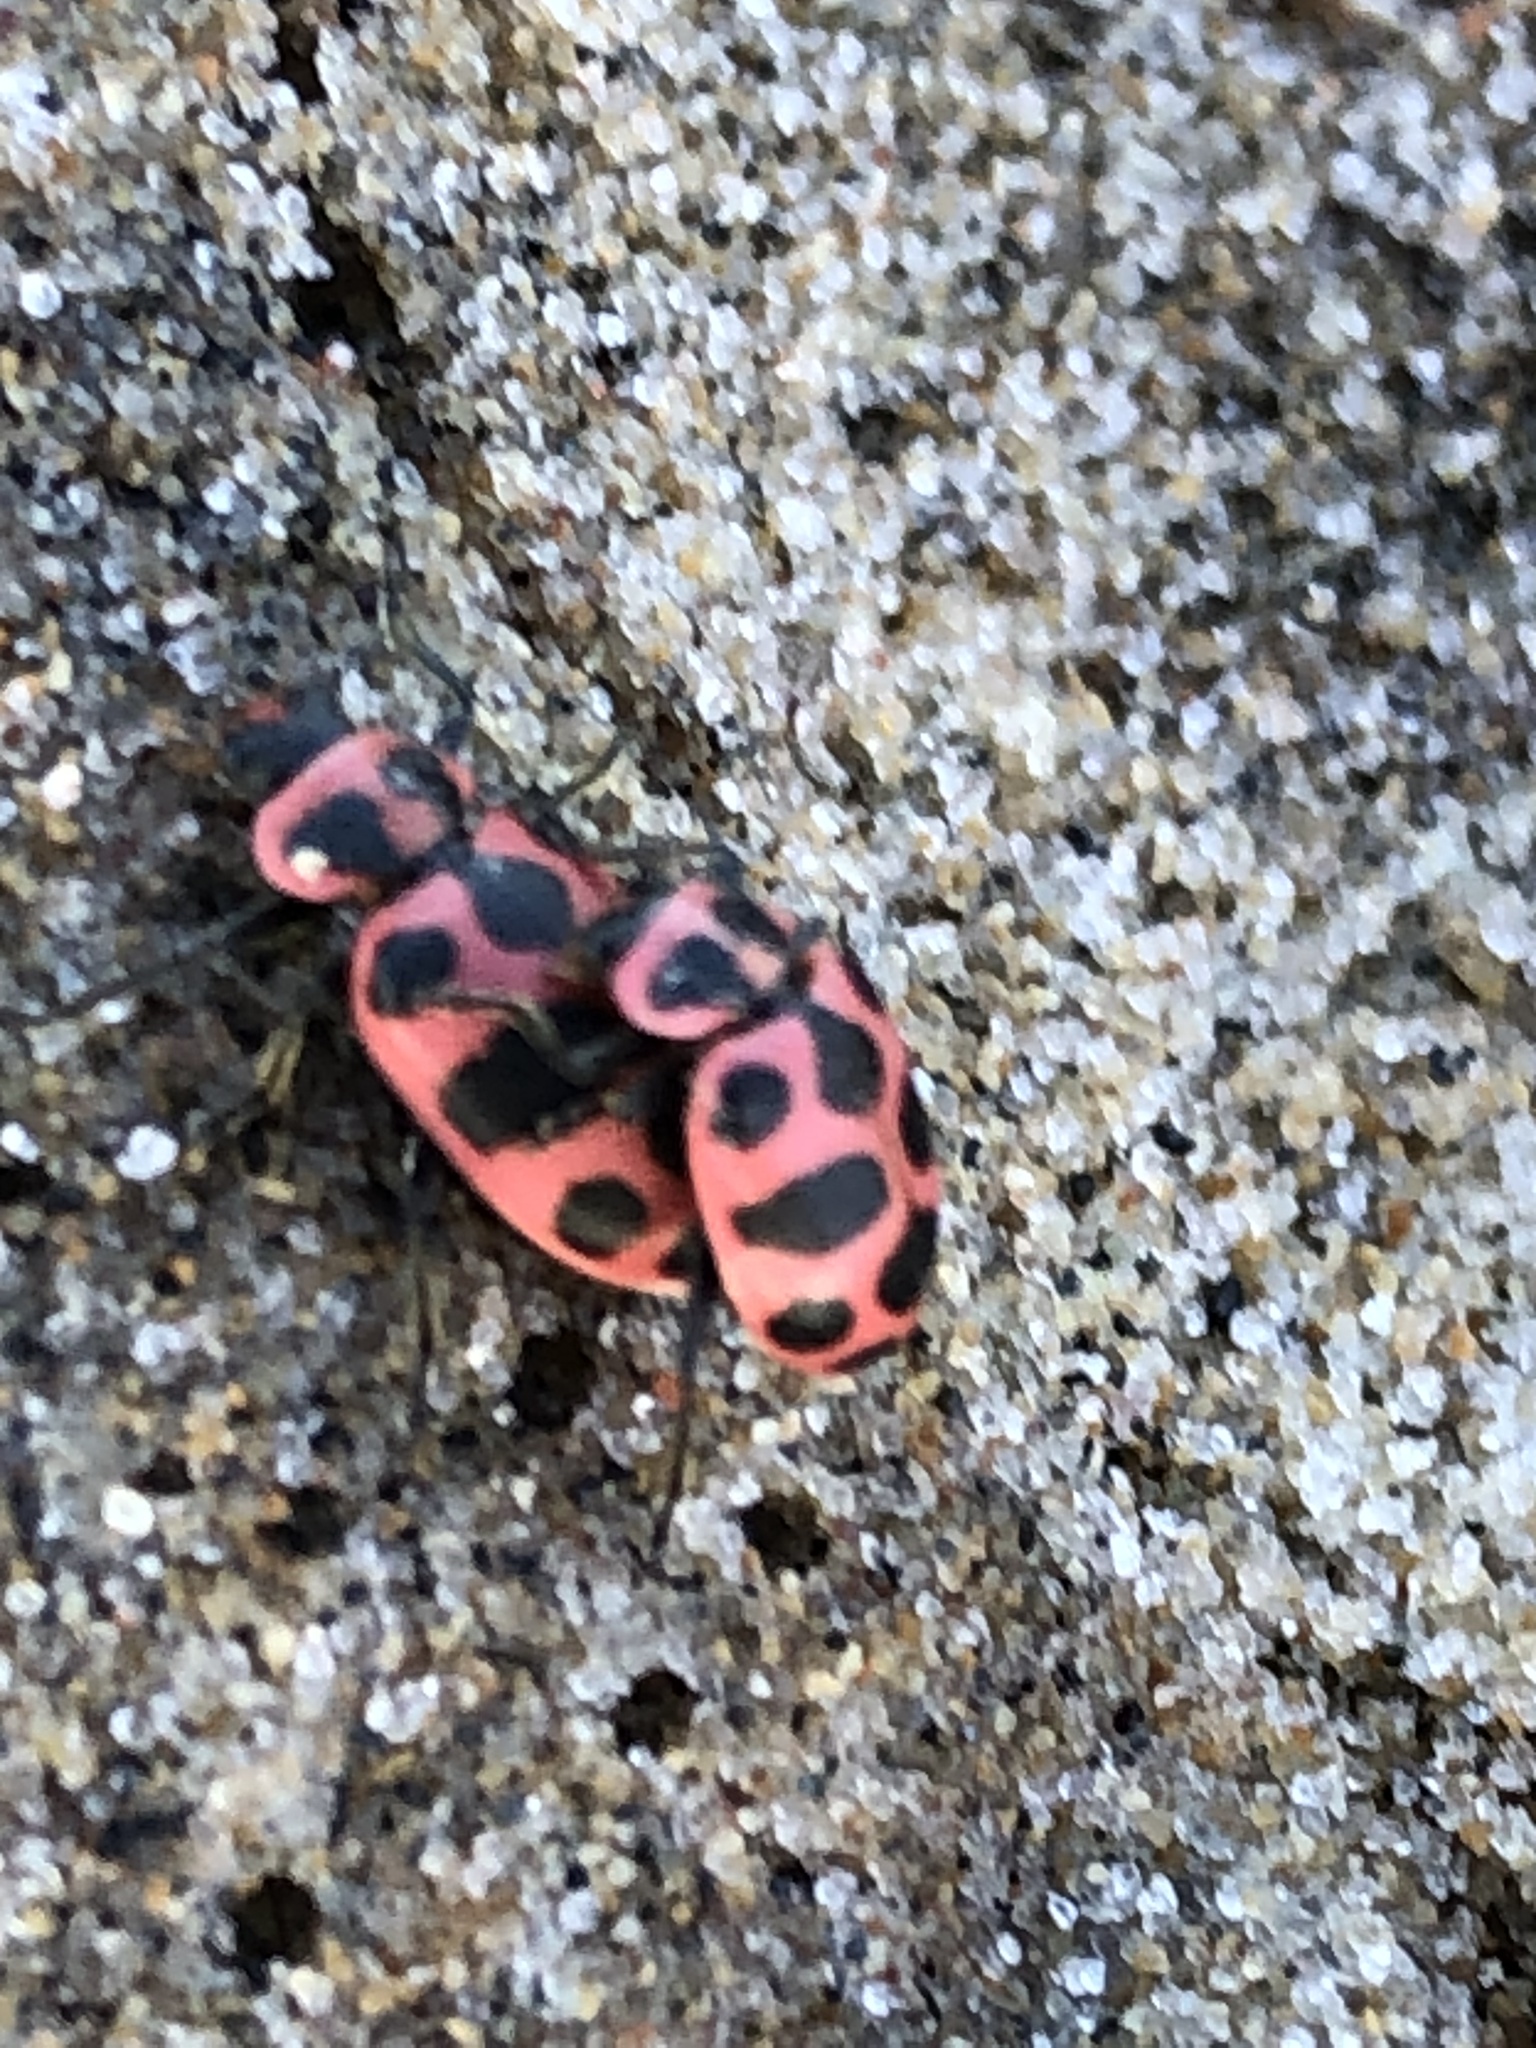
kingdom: Animalia
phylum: Arthropoda
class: Insecta
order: Coleoptera
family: Coccinellidae
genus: Coleomegilla
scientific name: Coleomegilla maculata
